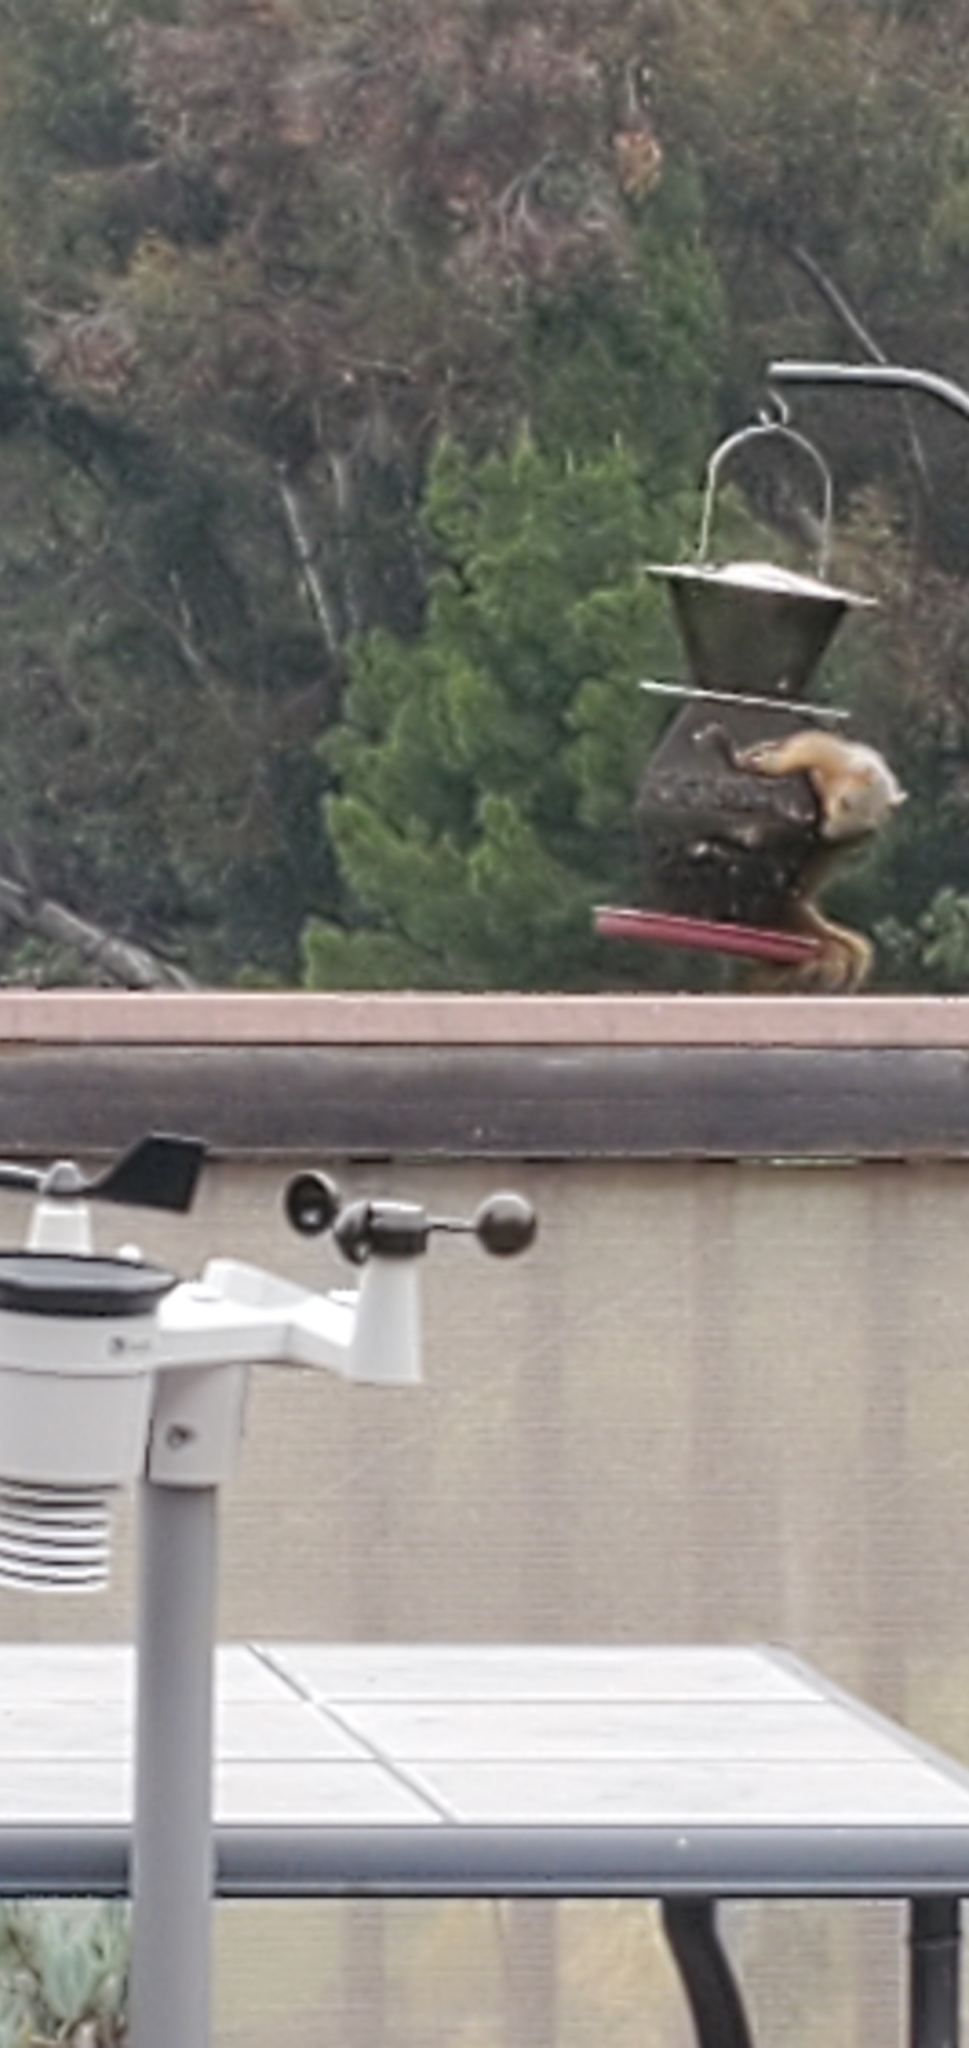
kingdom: Animalia
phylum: Chordata
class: Mammalia
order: Rodentia
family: Sciuridae
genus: Sciurus
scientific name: Sciurus niger
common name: Fox squirrel
